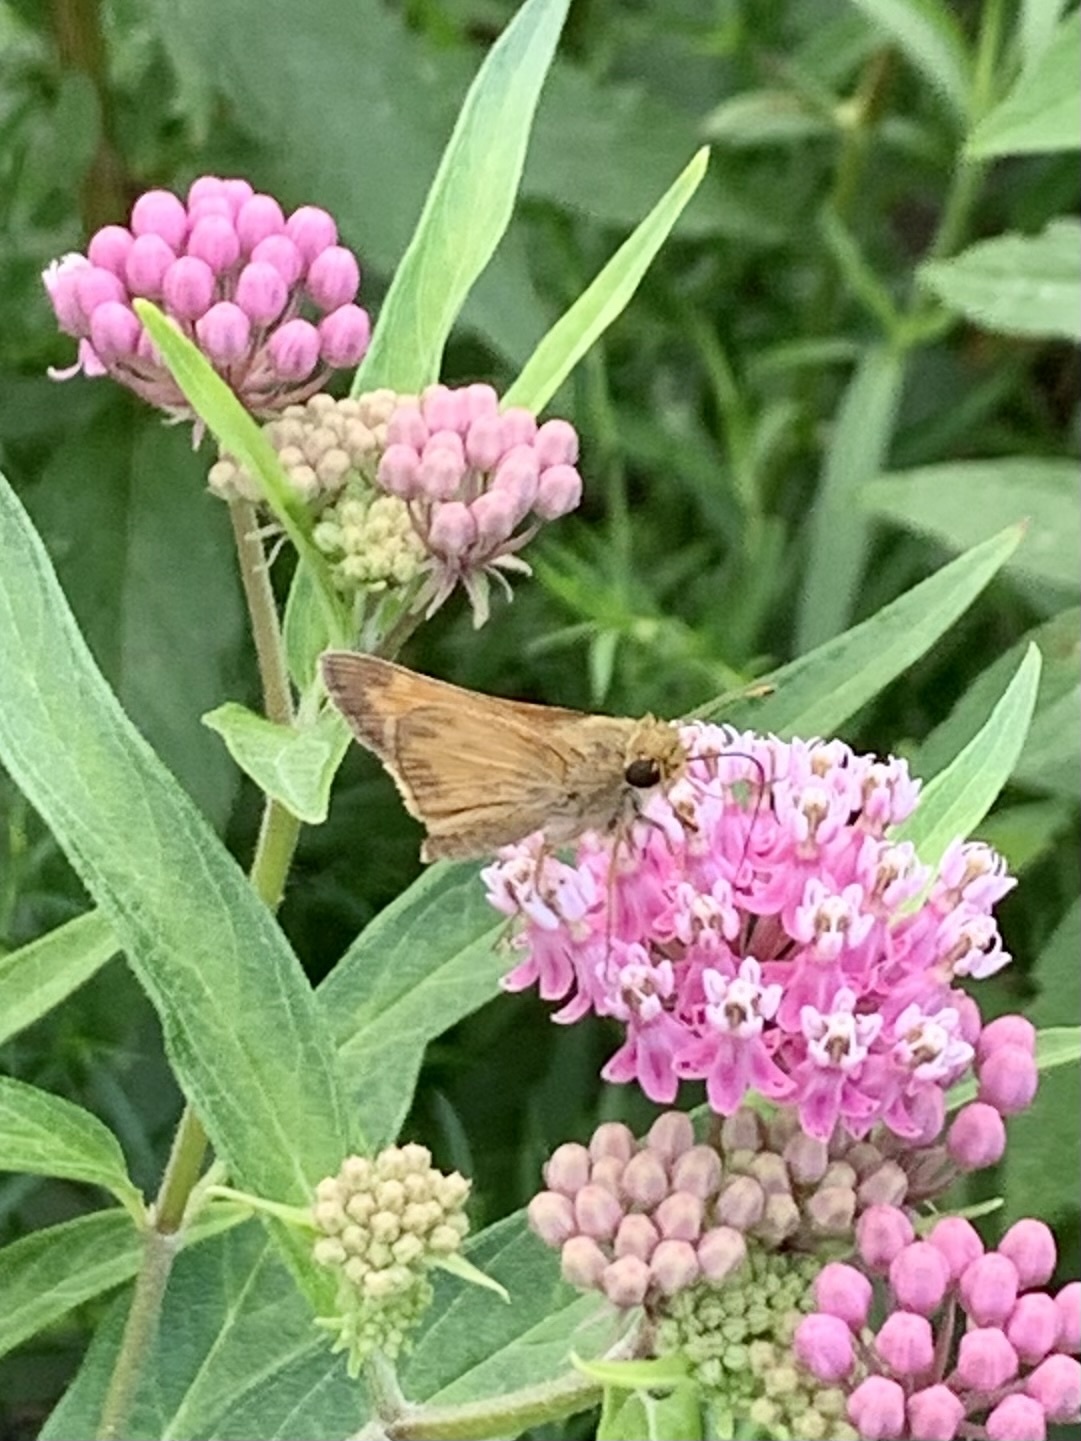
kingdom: Animalia
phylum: Arthropoda
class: Insecta
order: Lepidoptera
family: Hesperiidae
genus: Atalopedes
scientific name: Atalopedes
